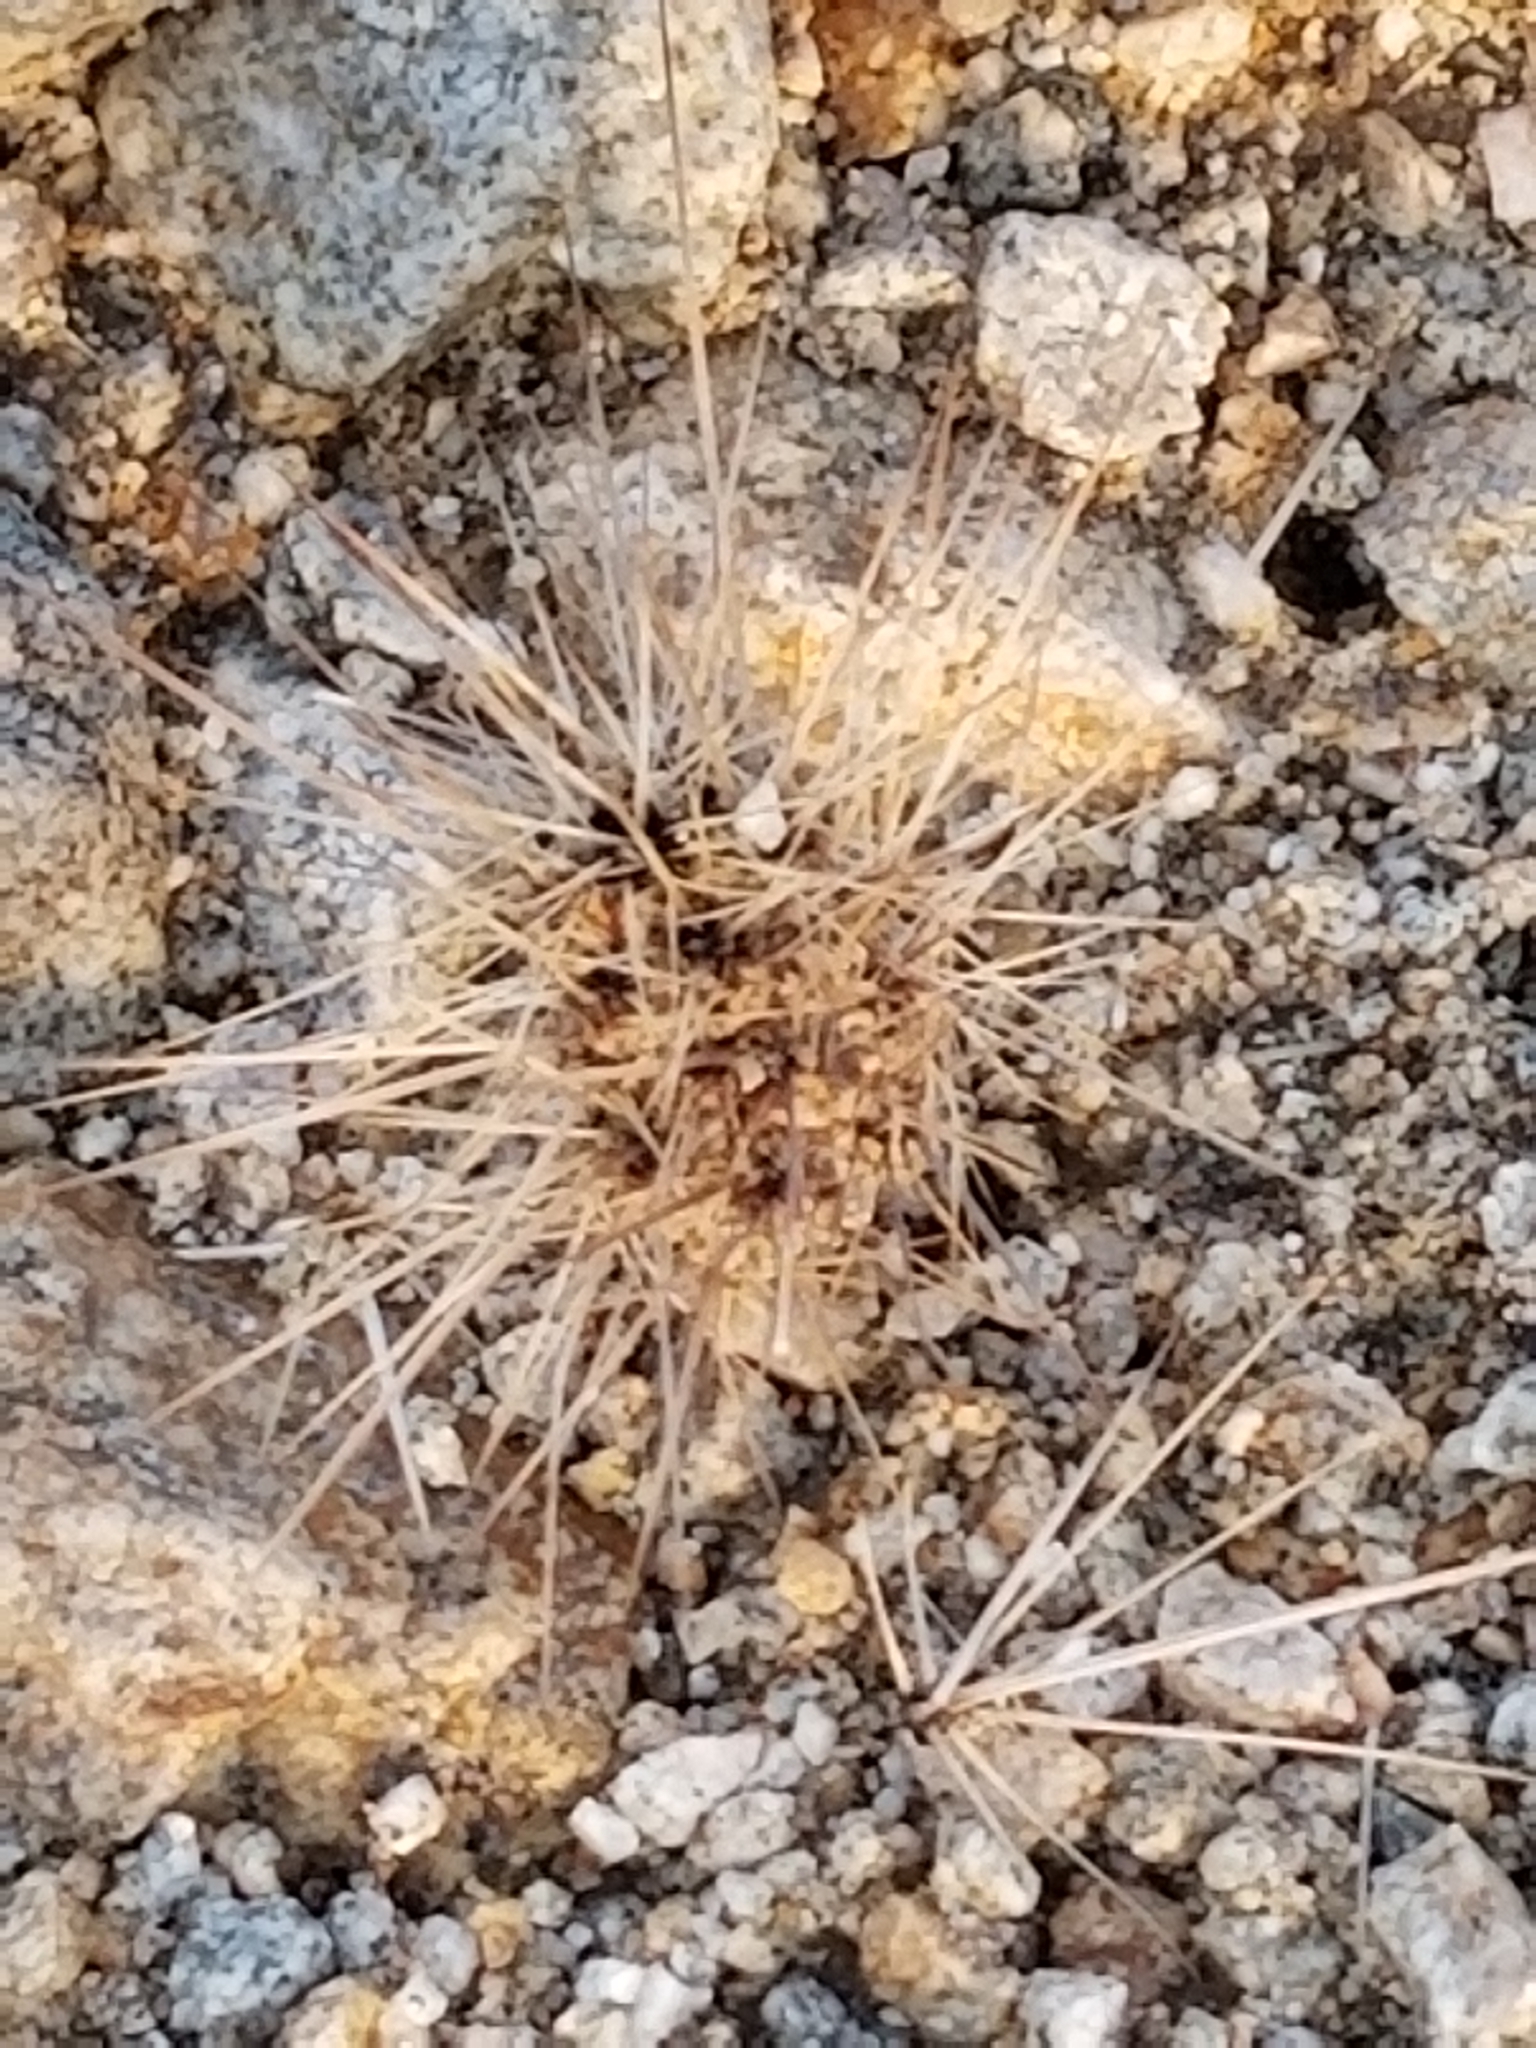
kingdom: Plantae
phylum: Tracheophyta
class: Magnoliopsida
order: Caryophyllales
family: Cactaceae
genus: Cylindropuntia
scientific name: Cylindropuntia fosbergii
